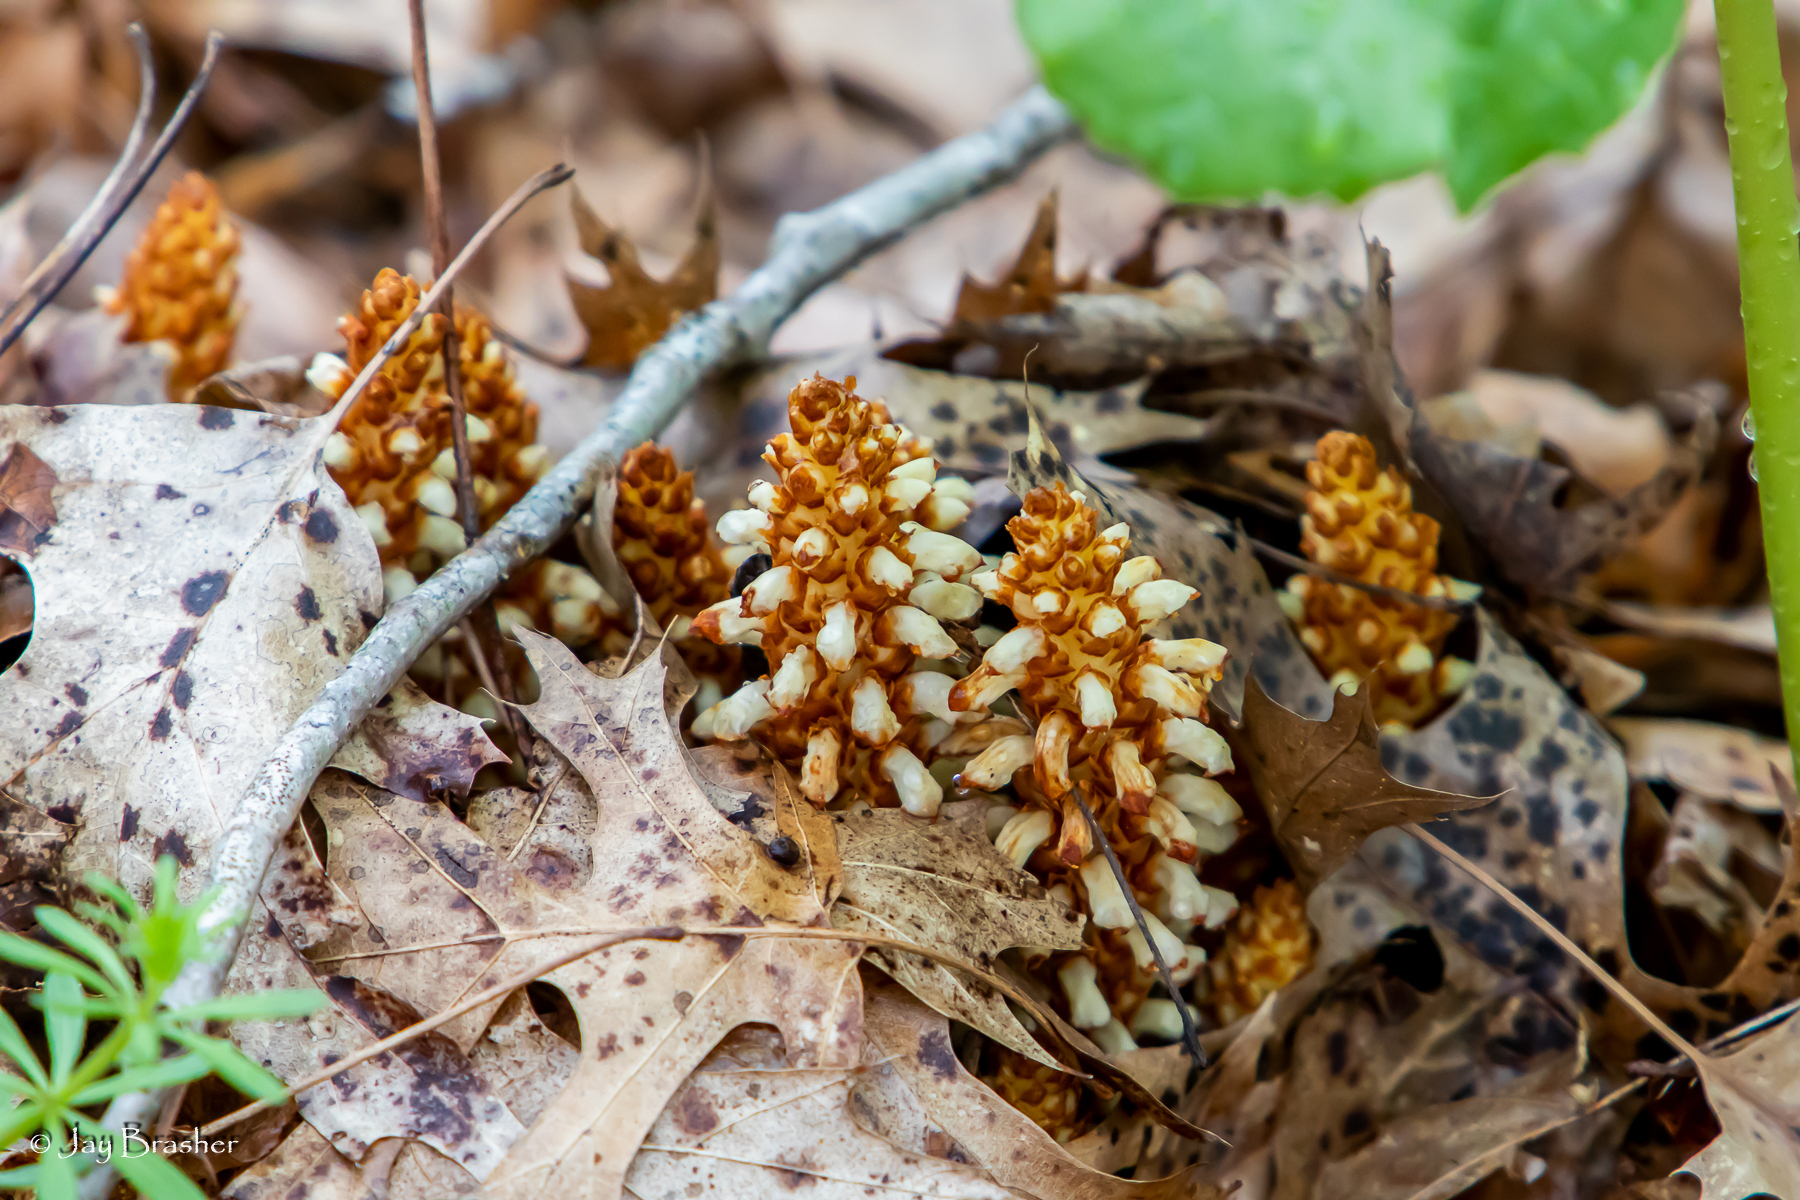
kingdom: Plantae
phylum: Tracheophyta
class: Magnoliopsida
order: Lamiales
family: Orobanchaceae
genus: Conopholis
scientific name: Conopholis americana
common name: American cancer-root
